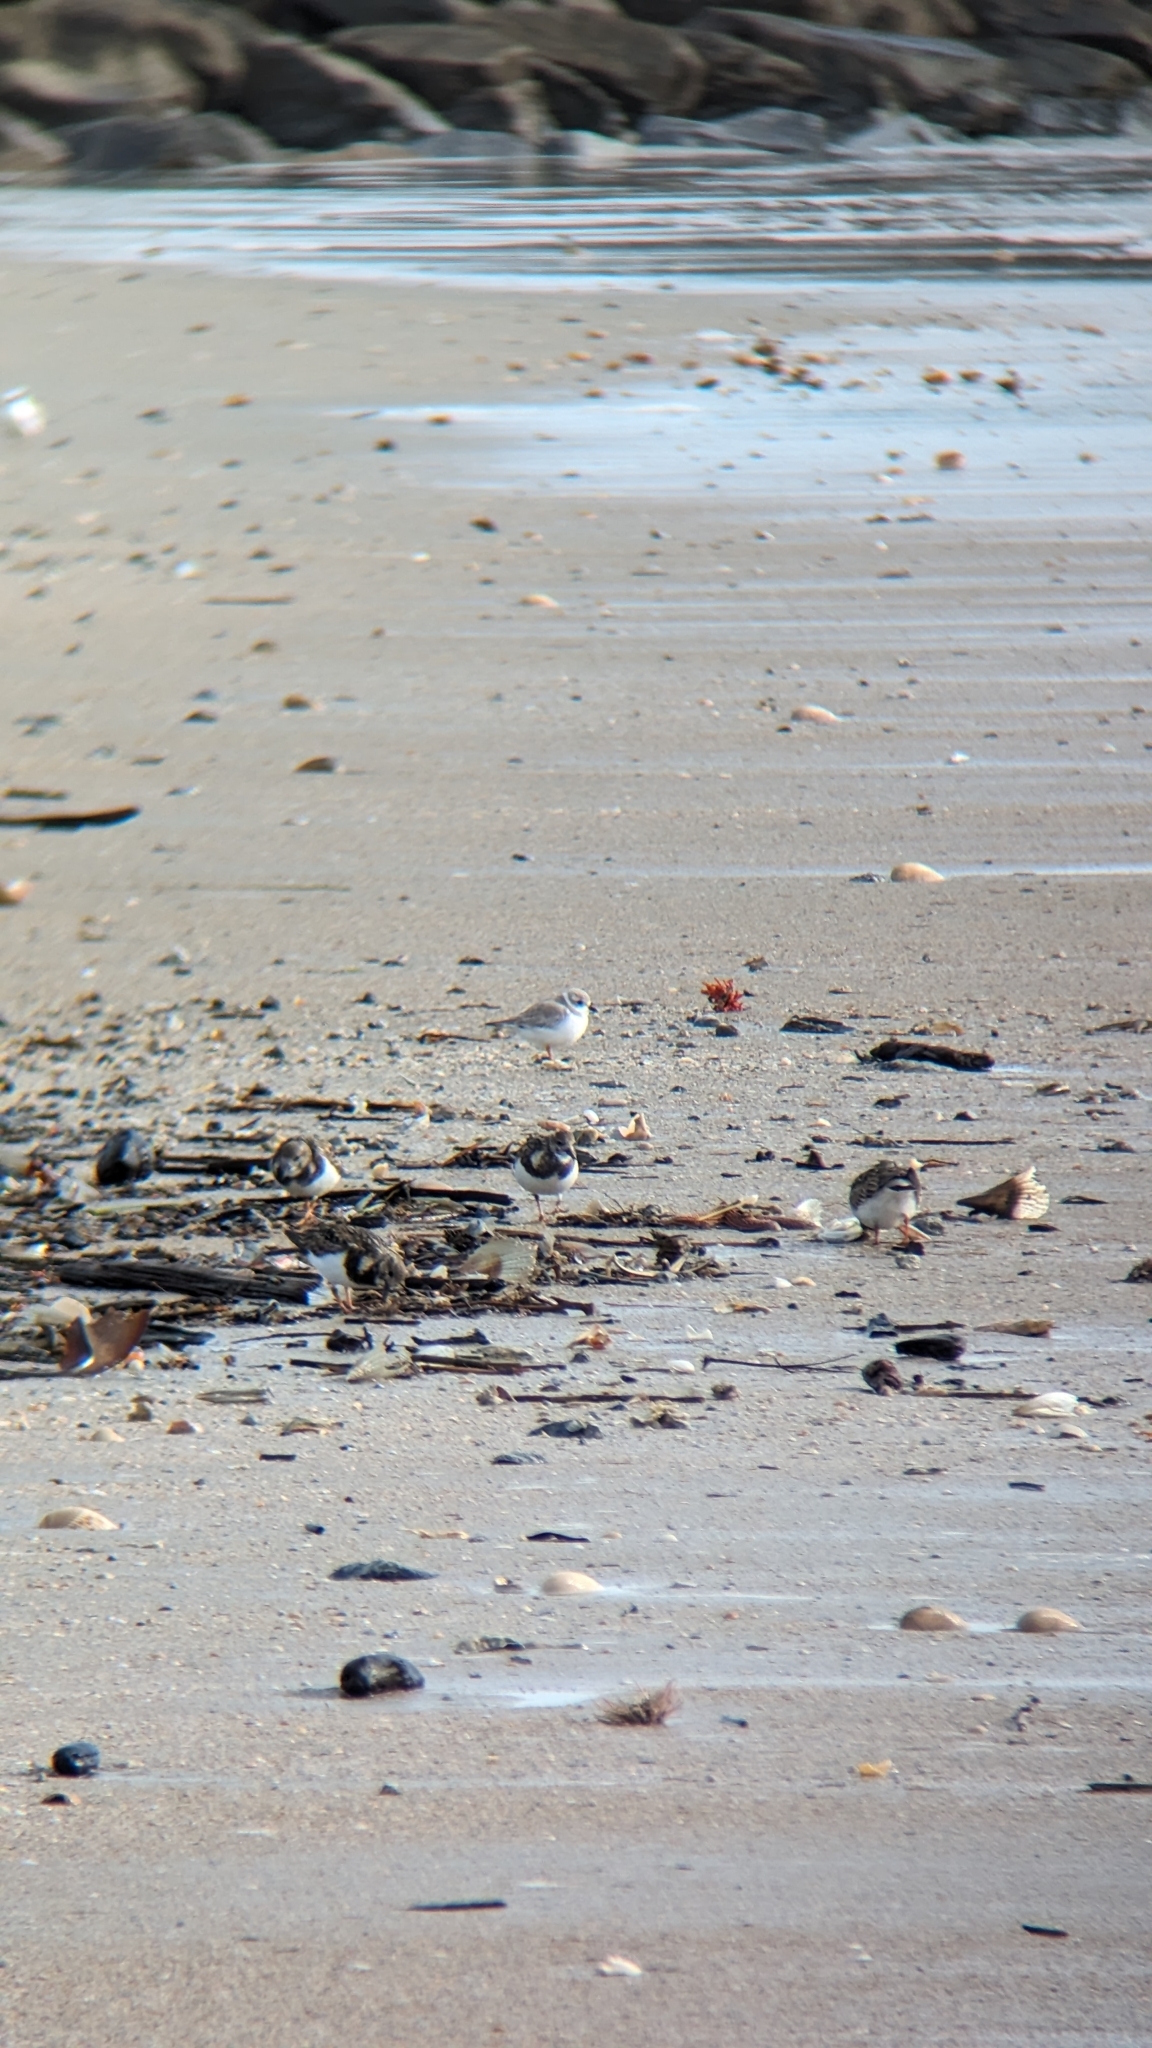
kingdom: Animalia
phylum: Chordata
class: Aves
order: Charadriiformes
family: Charadriidae
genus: Charadrius
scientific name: Charadrius melodus
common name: Piping plover
